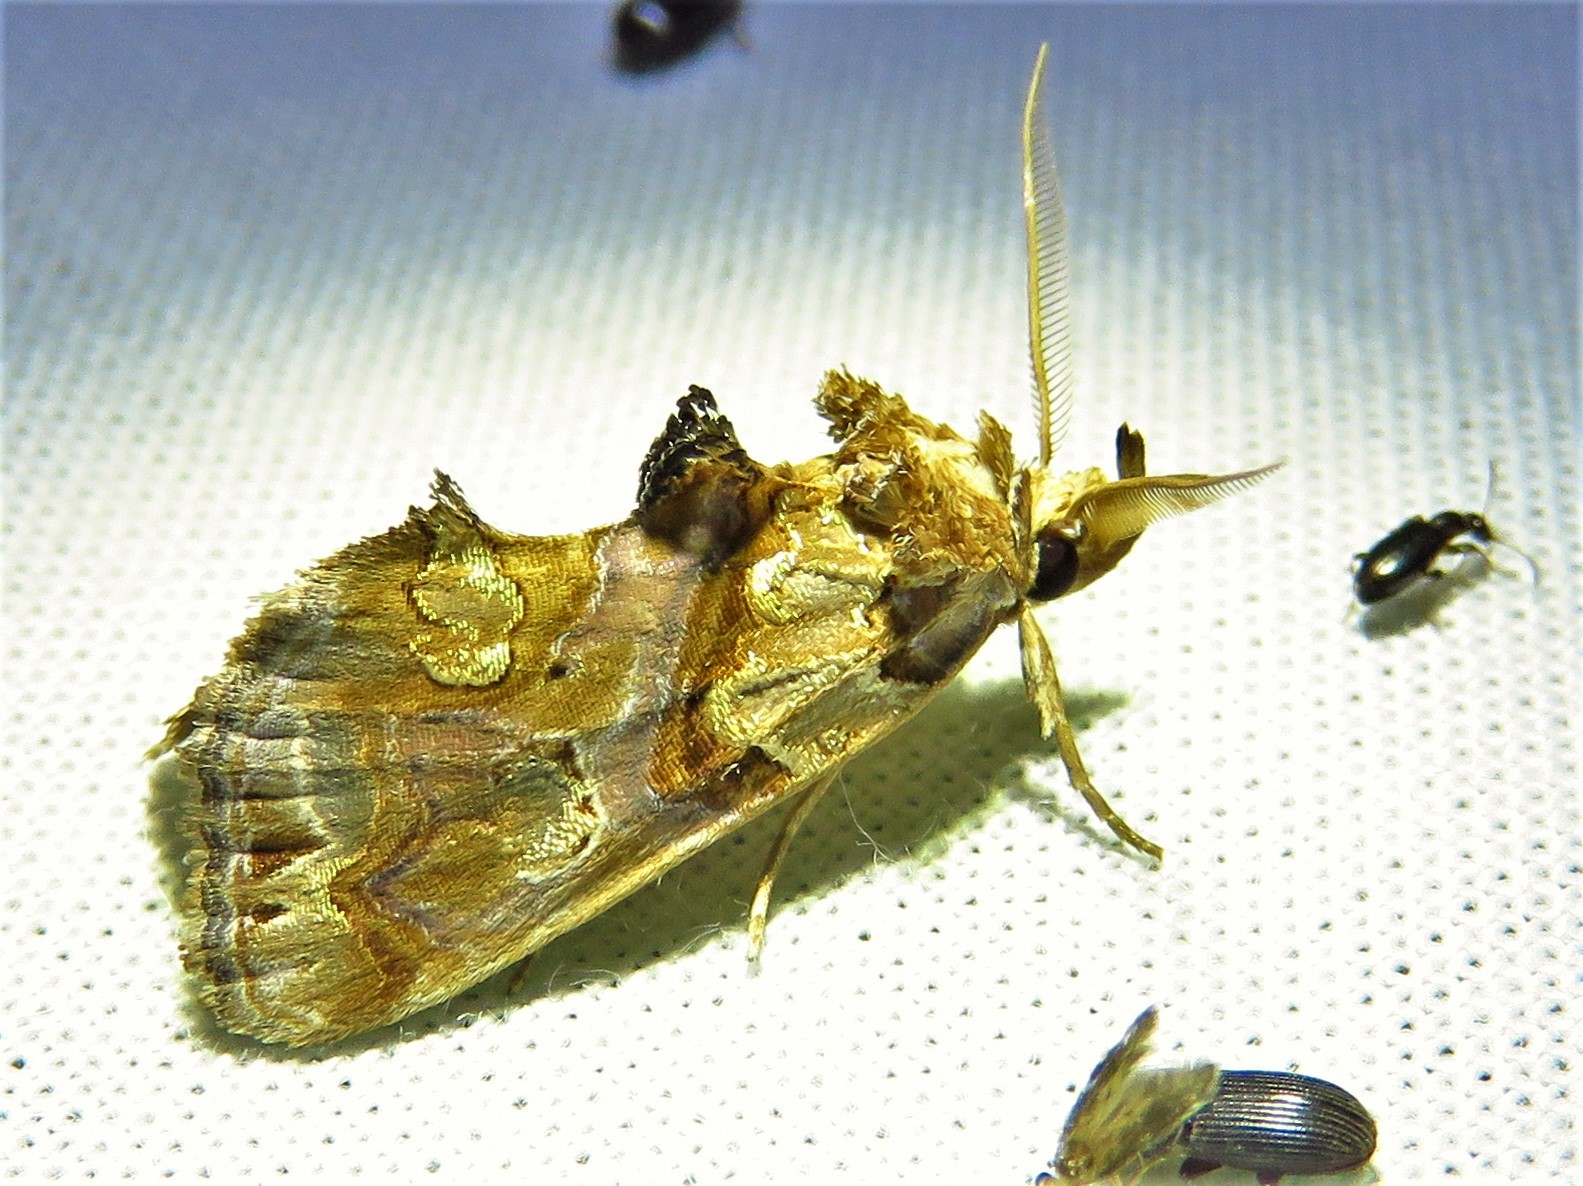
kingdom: Animalia
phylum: Arthropoda
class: Insecta
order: Lepidoptera
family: Erebidae
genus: Plusiodonta
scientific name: Plusiodonta compressipalpis
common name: Moonseed moth
